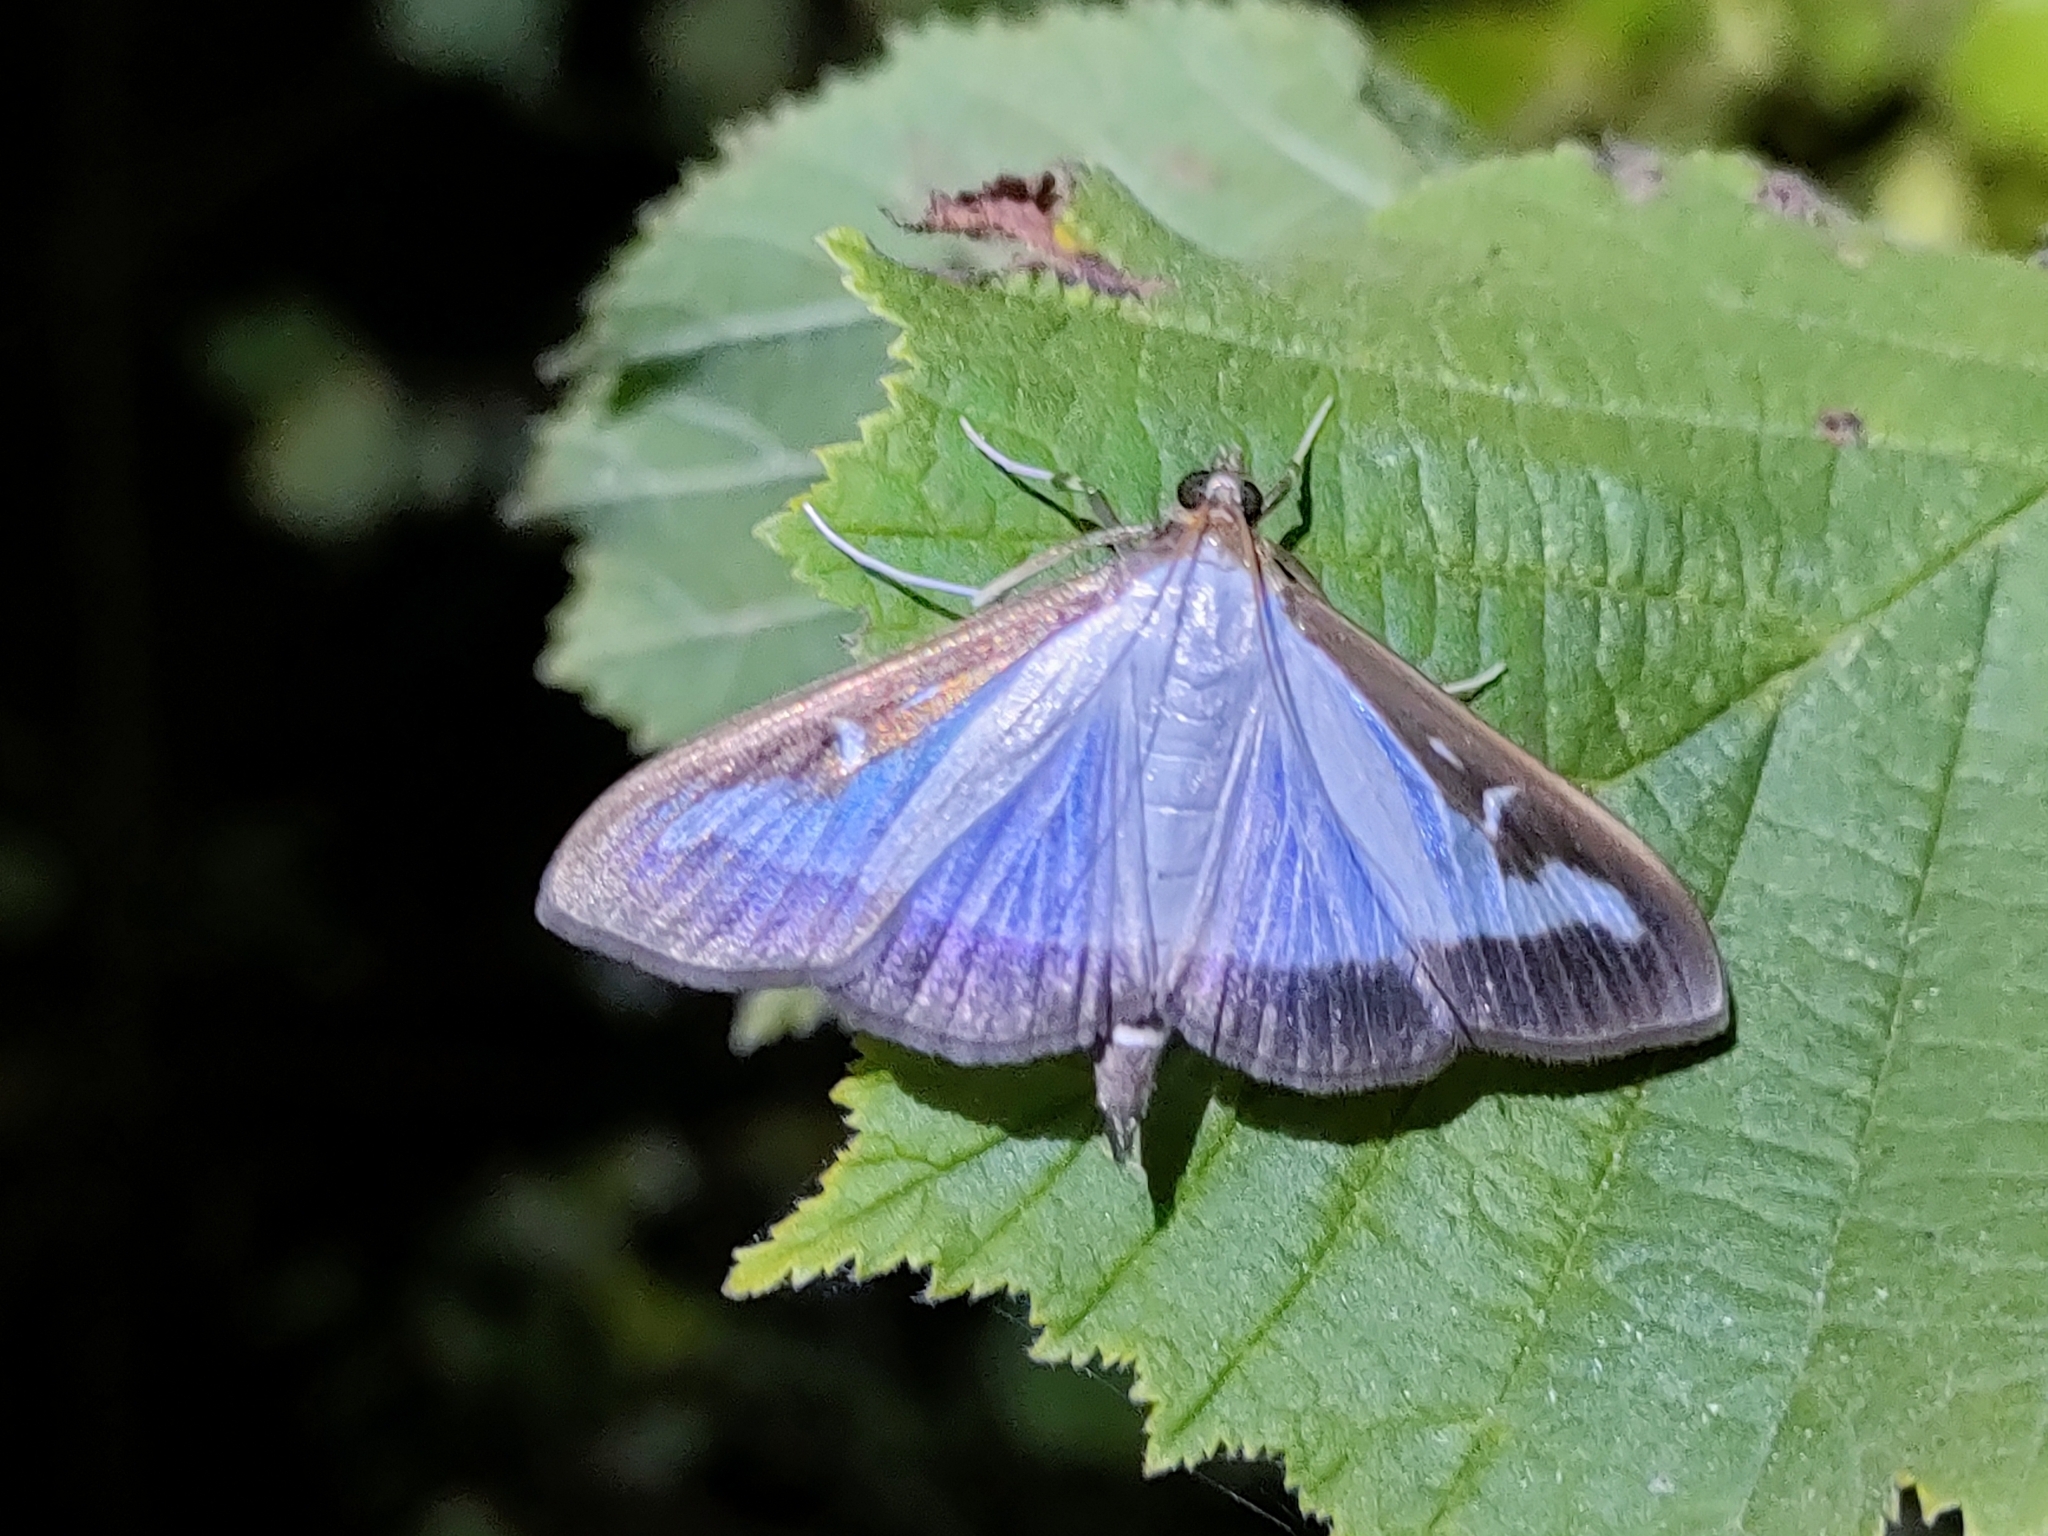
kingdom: Animalia
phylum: Arthropoda
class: Insecta
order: Lepidoptera
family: Crambidae
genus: Cydalima
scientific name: Cydalima perspectalis
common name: Box tree moth
